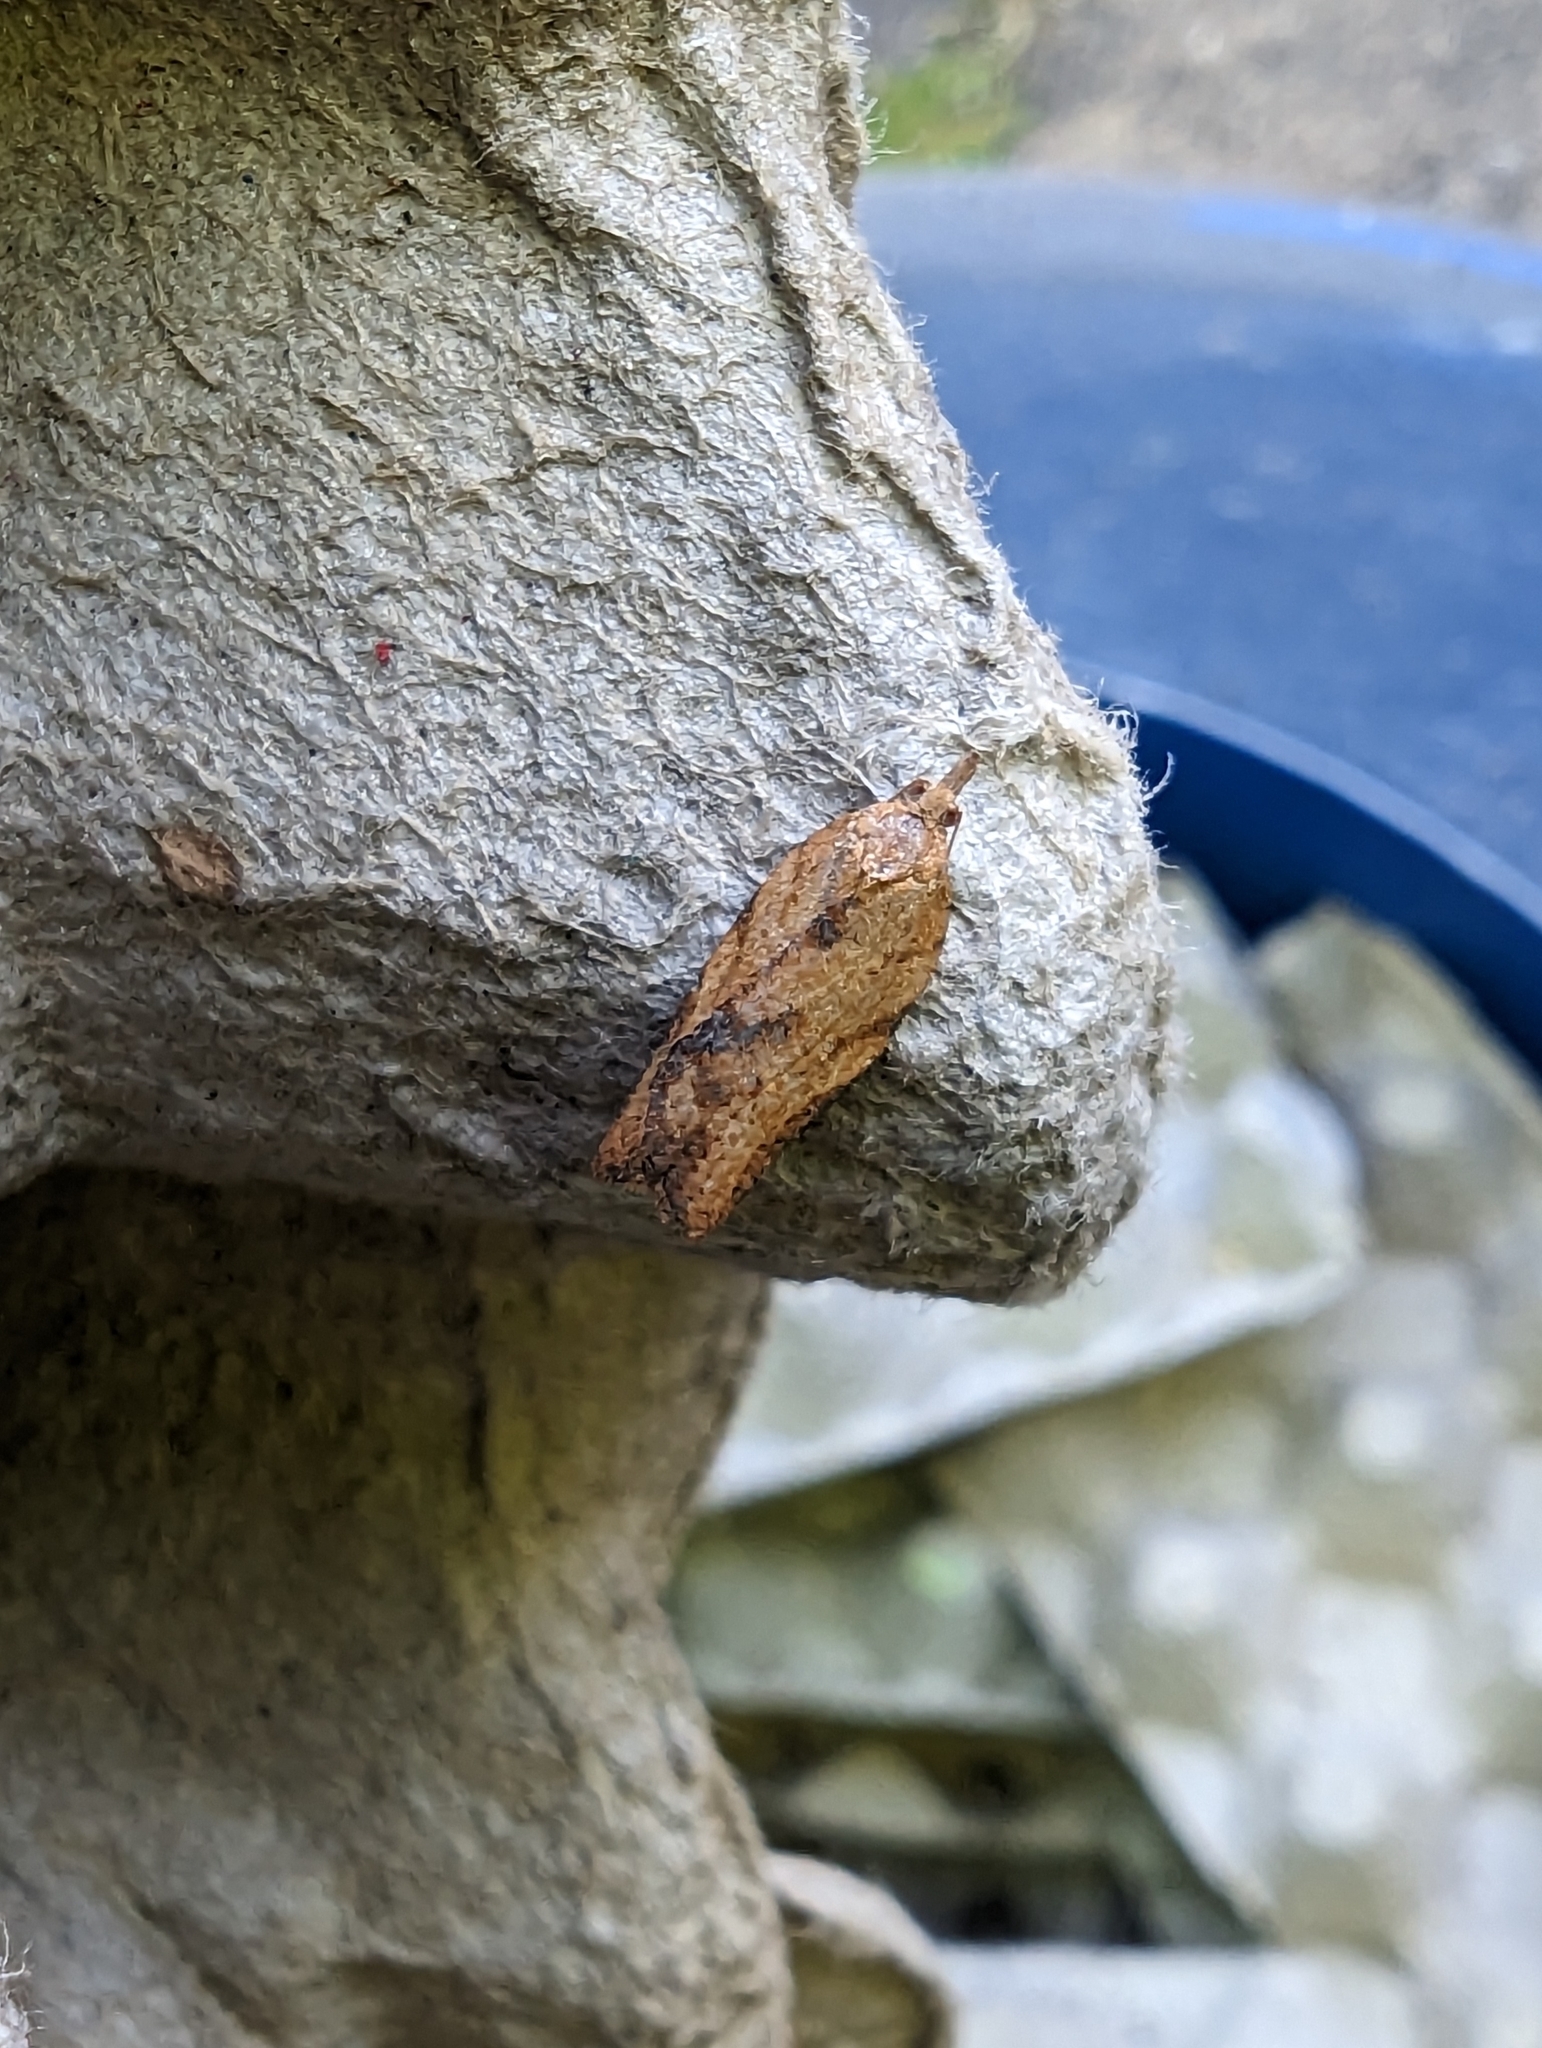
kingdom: Animalia
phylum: Arthropoda
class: Insecta
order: Lepidoptera
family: Tortricidae
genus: Epiphyas
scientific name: Epiphyas postvittana
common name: Light brown apple moth
